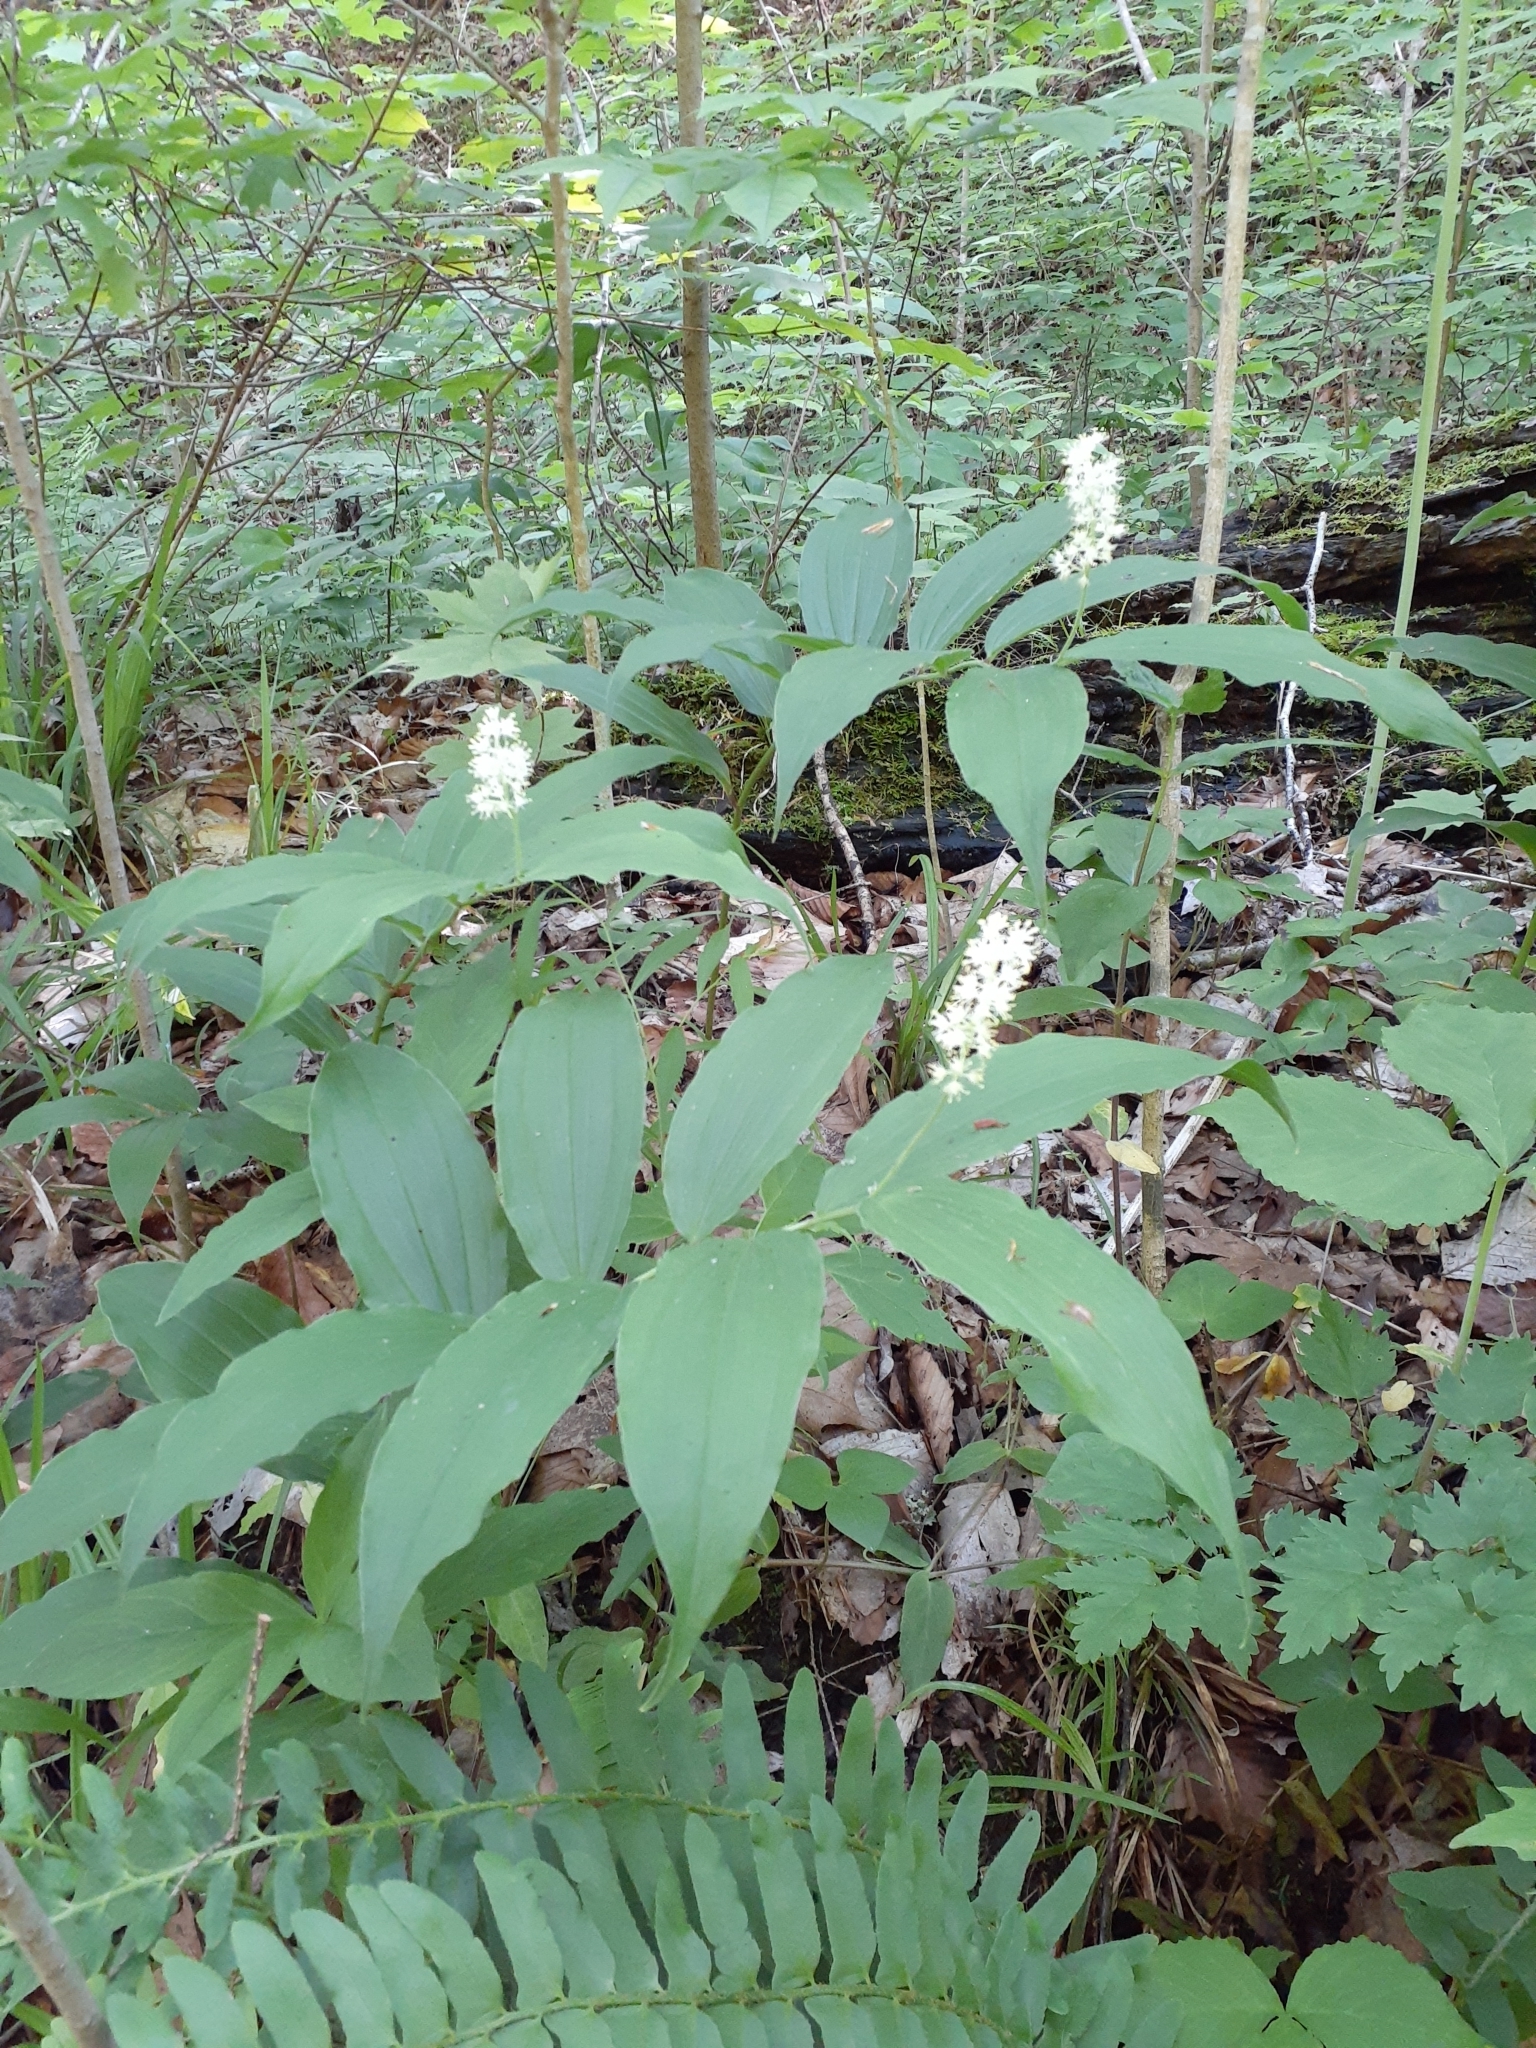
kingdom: Plantae
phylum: Tracheophyta
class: Liliopsida
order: Asparagales
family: Asparagaceae
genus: Maianthemum
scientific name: Maianthemum racemosum
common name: False spikenard
